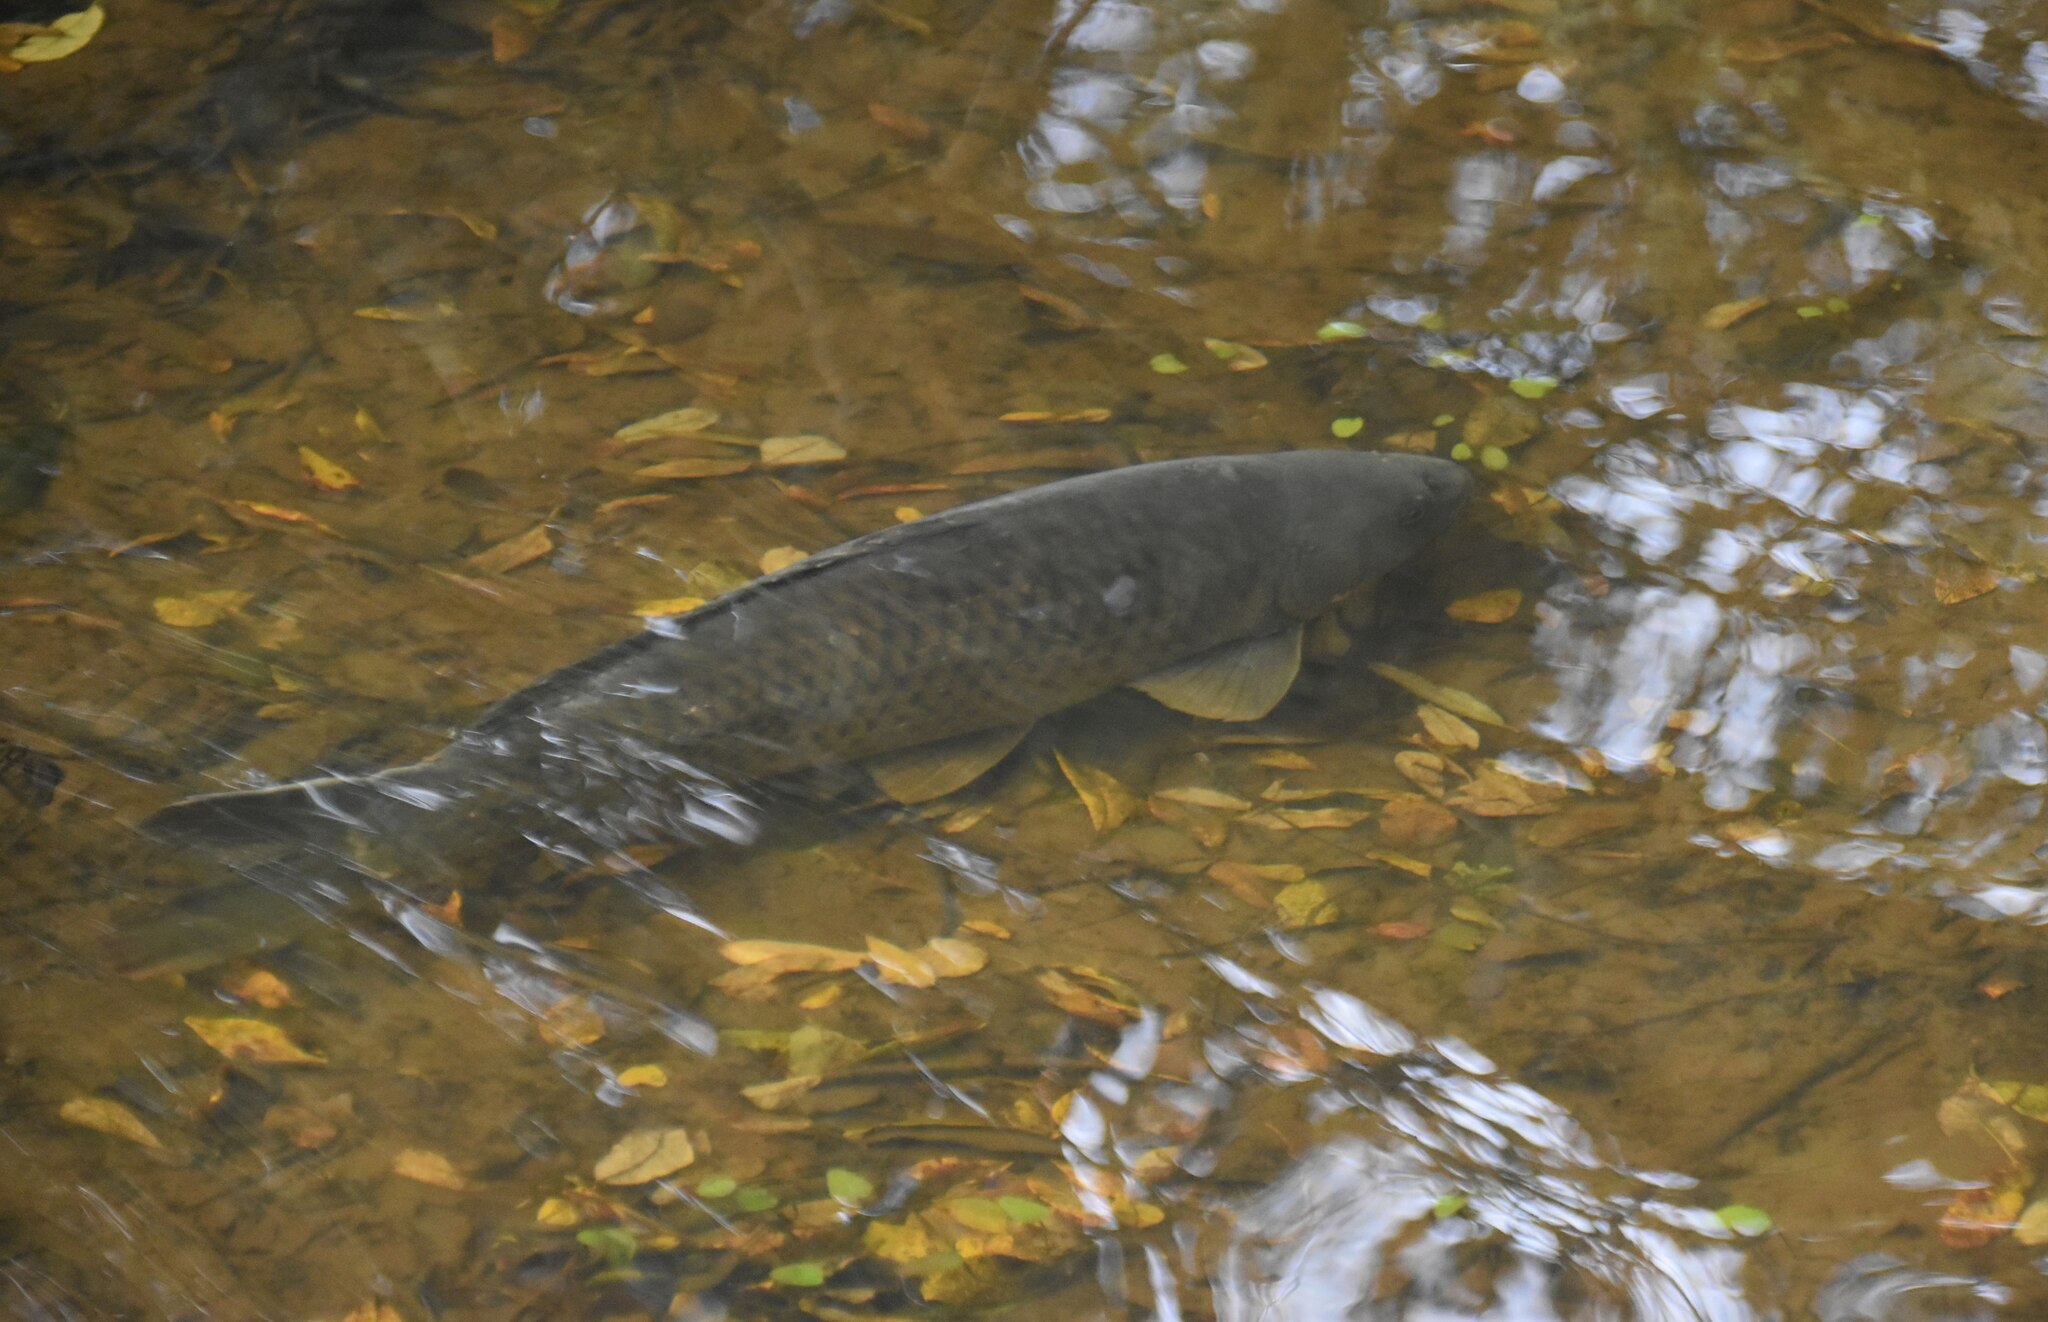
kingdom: Animalia
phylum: Chordata
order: Cypriniformes
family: Cyprinidae
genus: Cyprinus
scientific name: Cyprinus carpio
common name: Common carp
